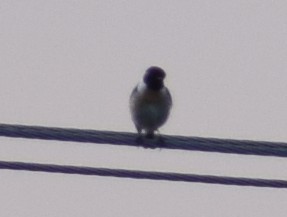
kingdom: Animalia
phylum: Chordata
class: Aves
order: Passeriformes
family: Muscicapidae
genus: Saxicola
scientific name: Saxicola rubicola
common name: European stonechat
